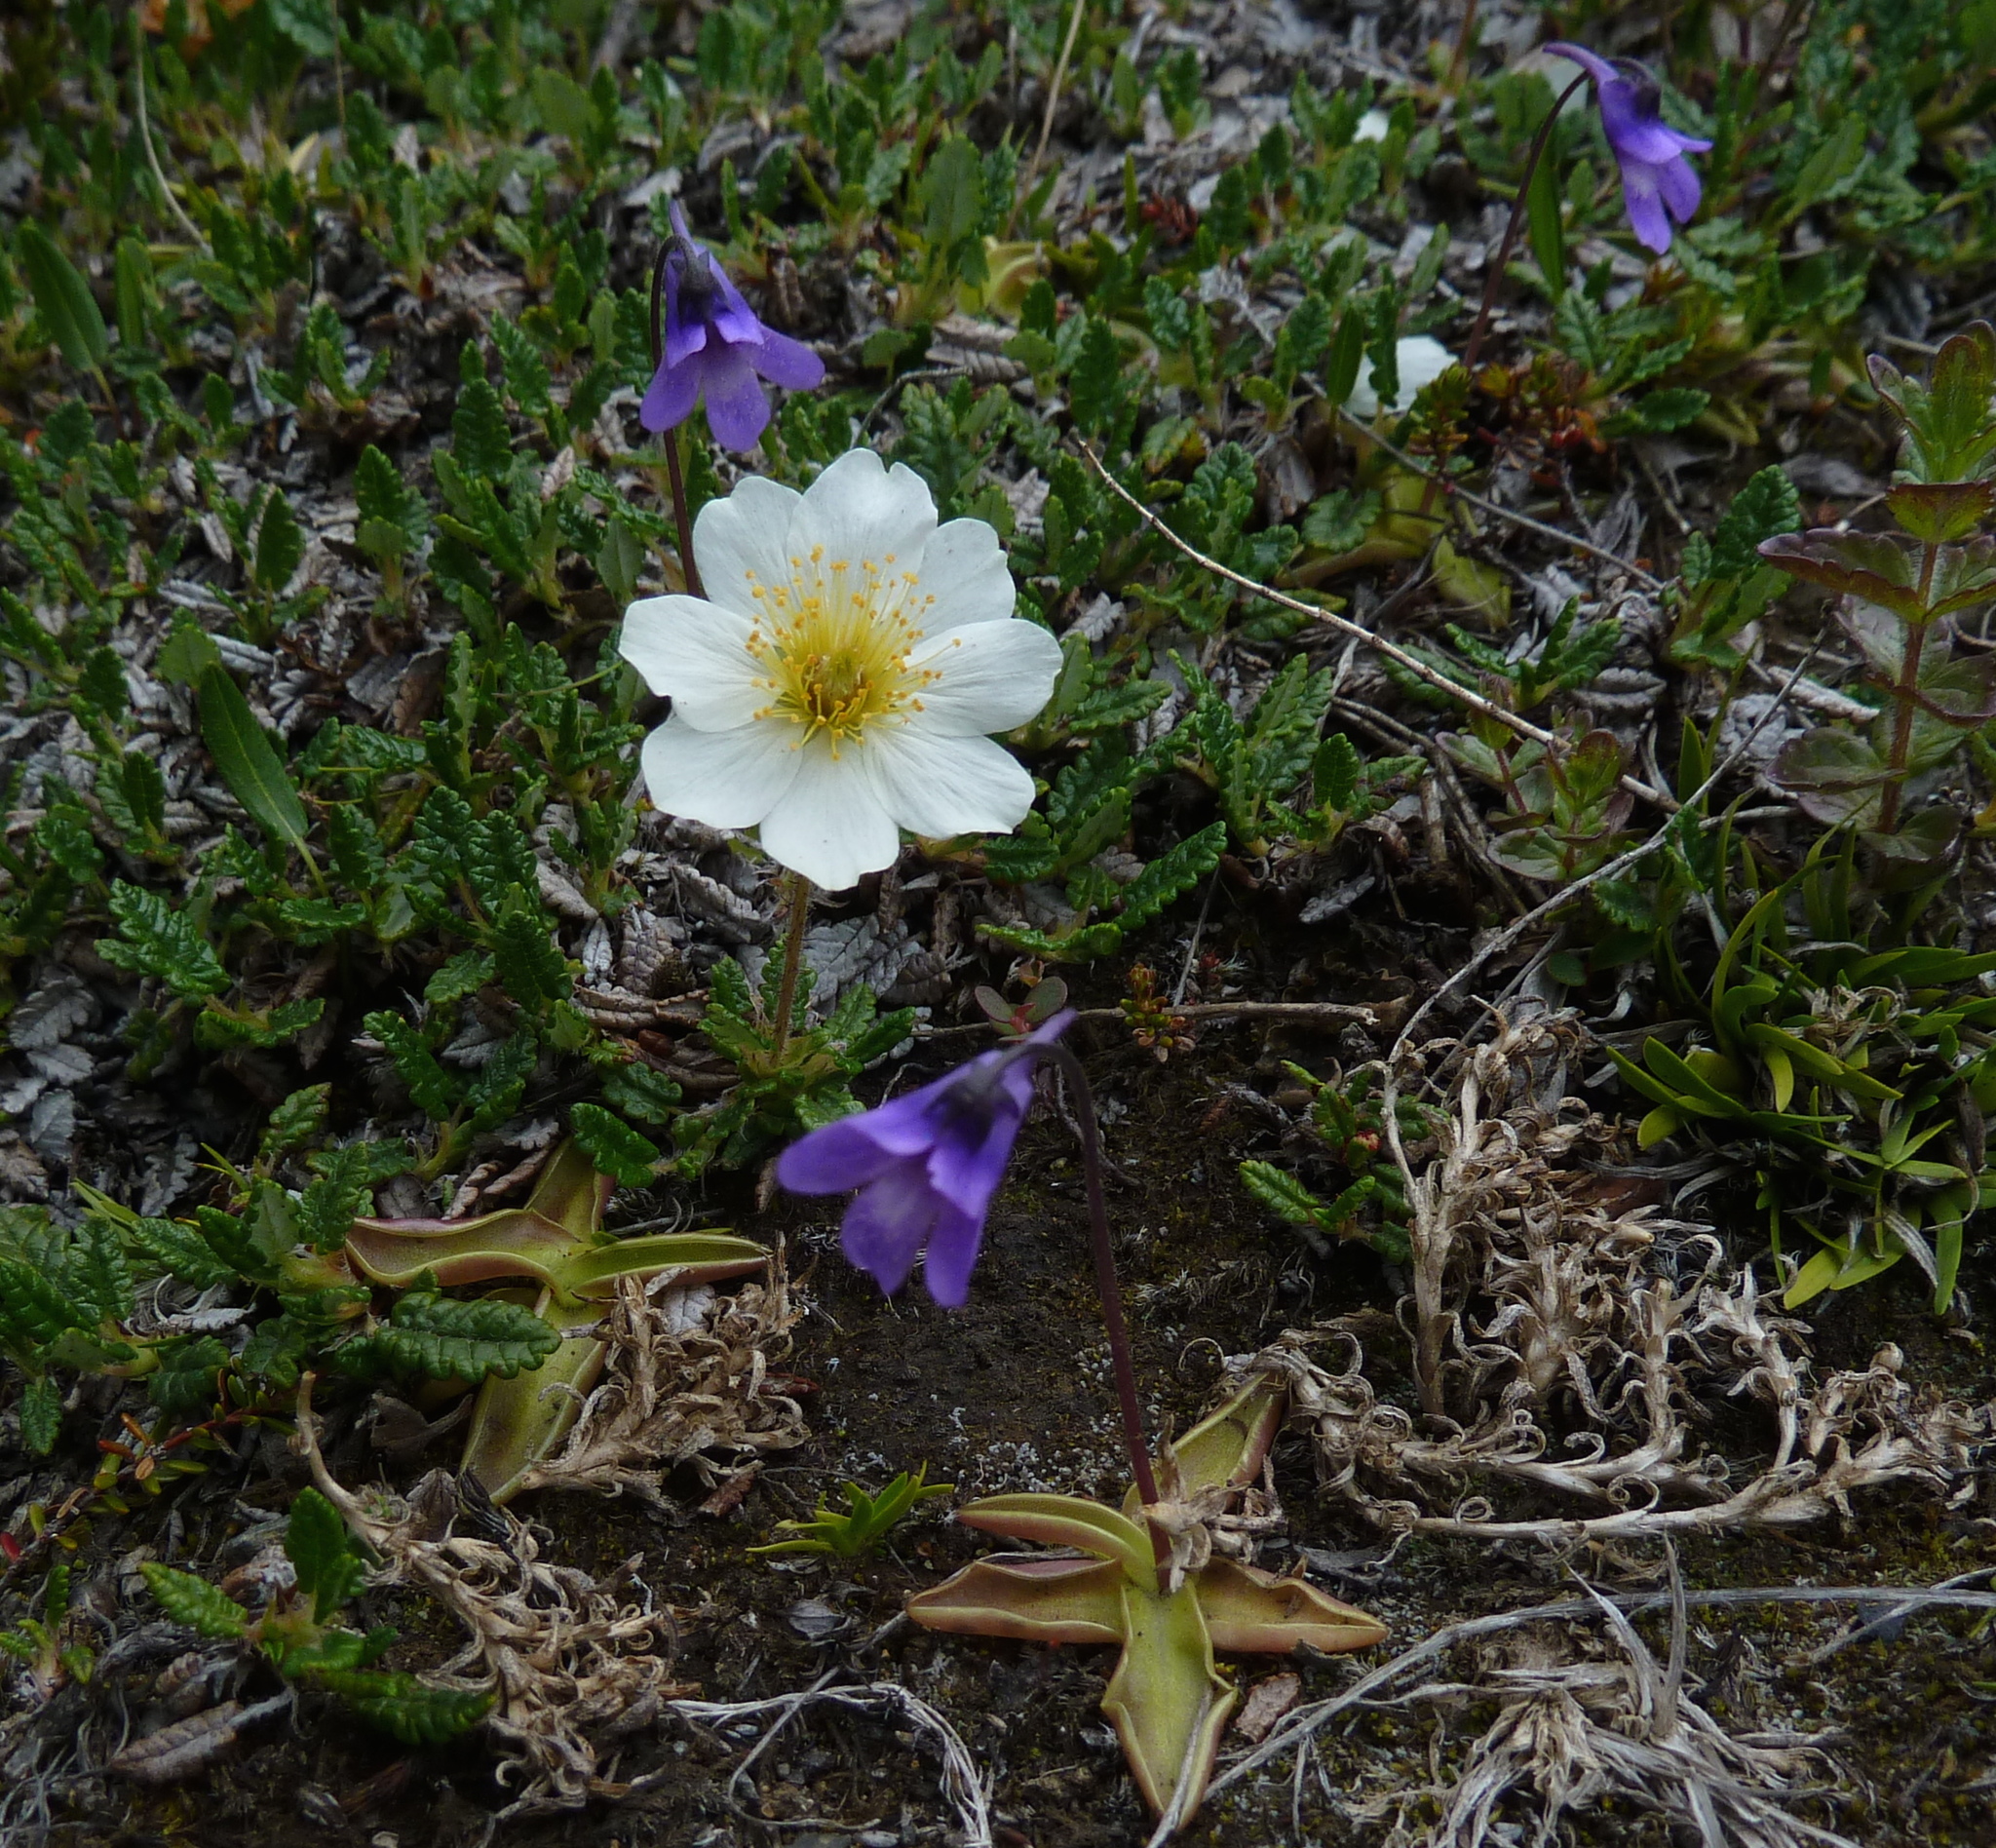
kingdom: Plantae
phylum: Tracheophyta
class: Magnoliopsida
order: Rosales
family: Rosaceae
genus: Dryas
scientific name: Dryas octopetala
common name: Eight-petal mountain-avens
